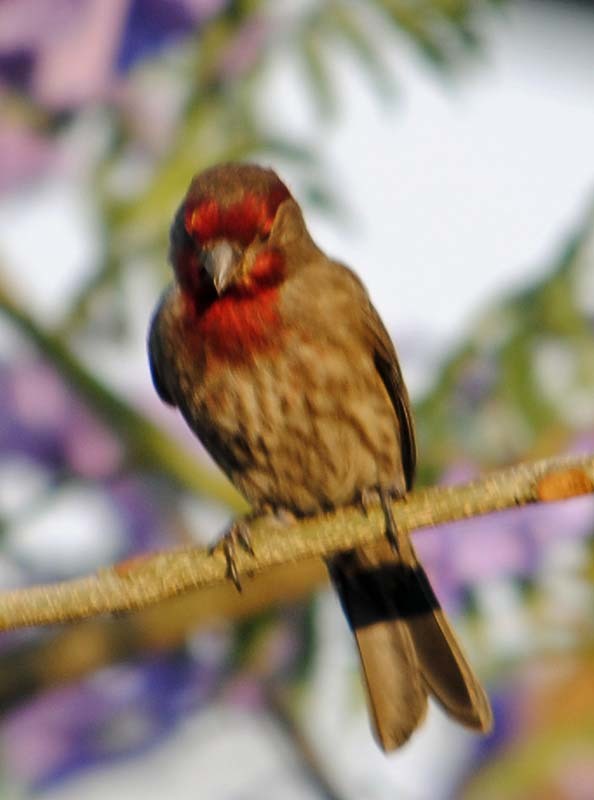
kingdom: Animalia
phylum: Chordata
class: Aves
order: Passeriformes
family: Fringillidae
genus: Haemorhous
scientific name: Haemorhous mexicanus
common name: House finch
